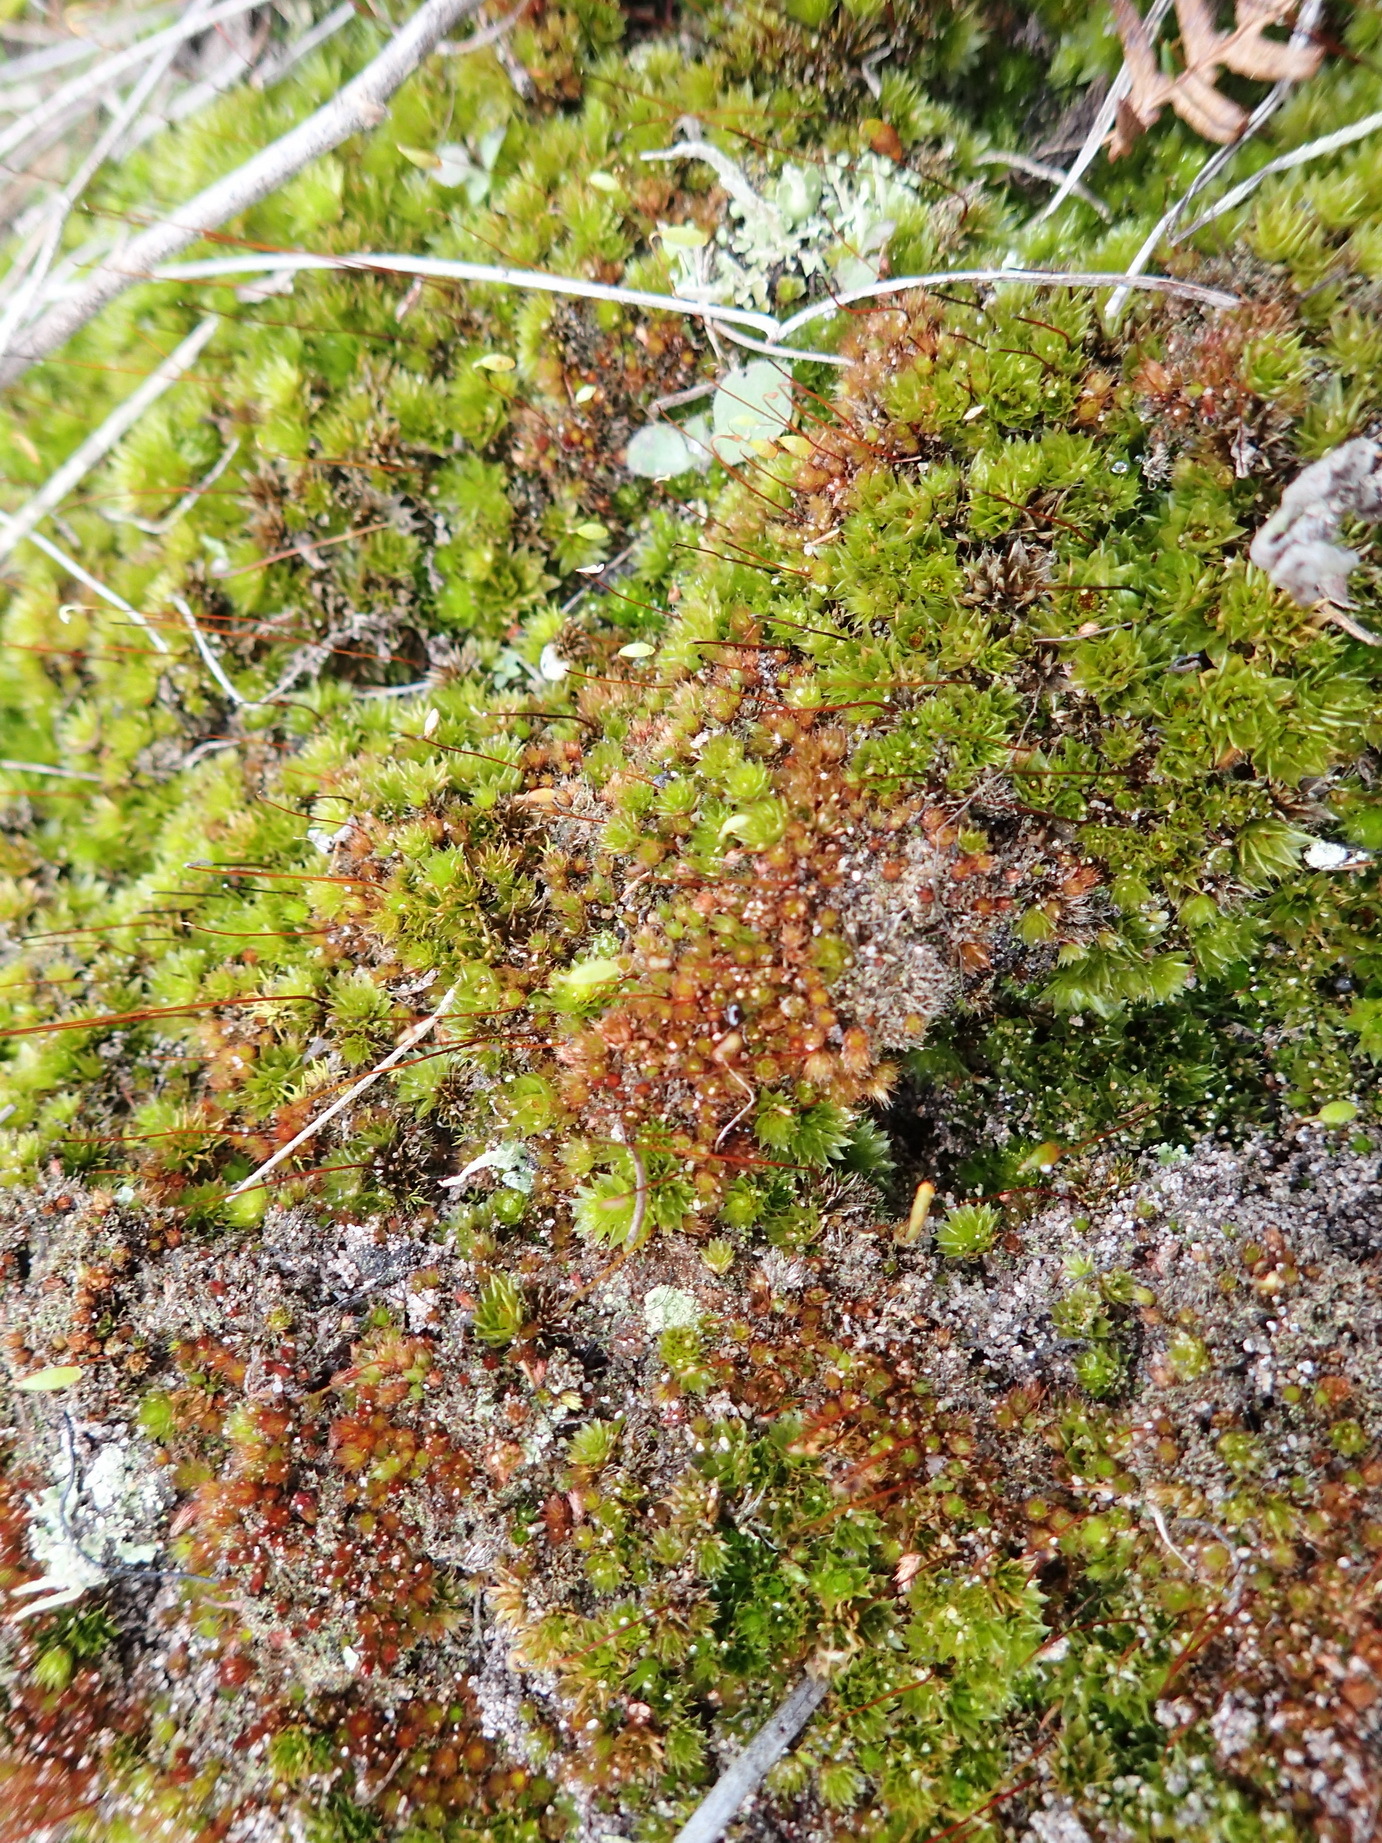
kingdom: Plantae
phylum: Bryophyta
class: Bryopsida
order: Bryales
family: Bryaceae
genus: Rosulabryum
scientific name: Rosulabryum canariense
